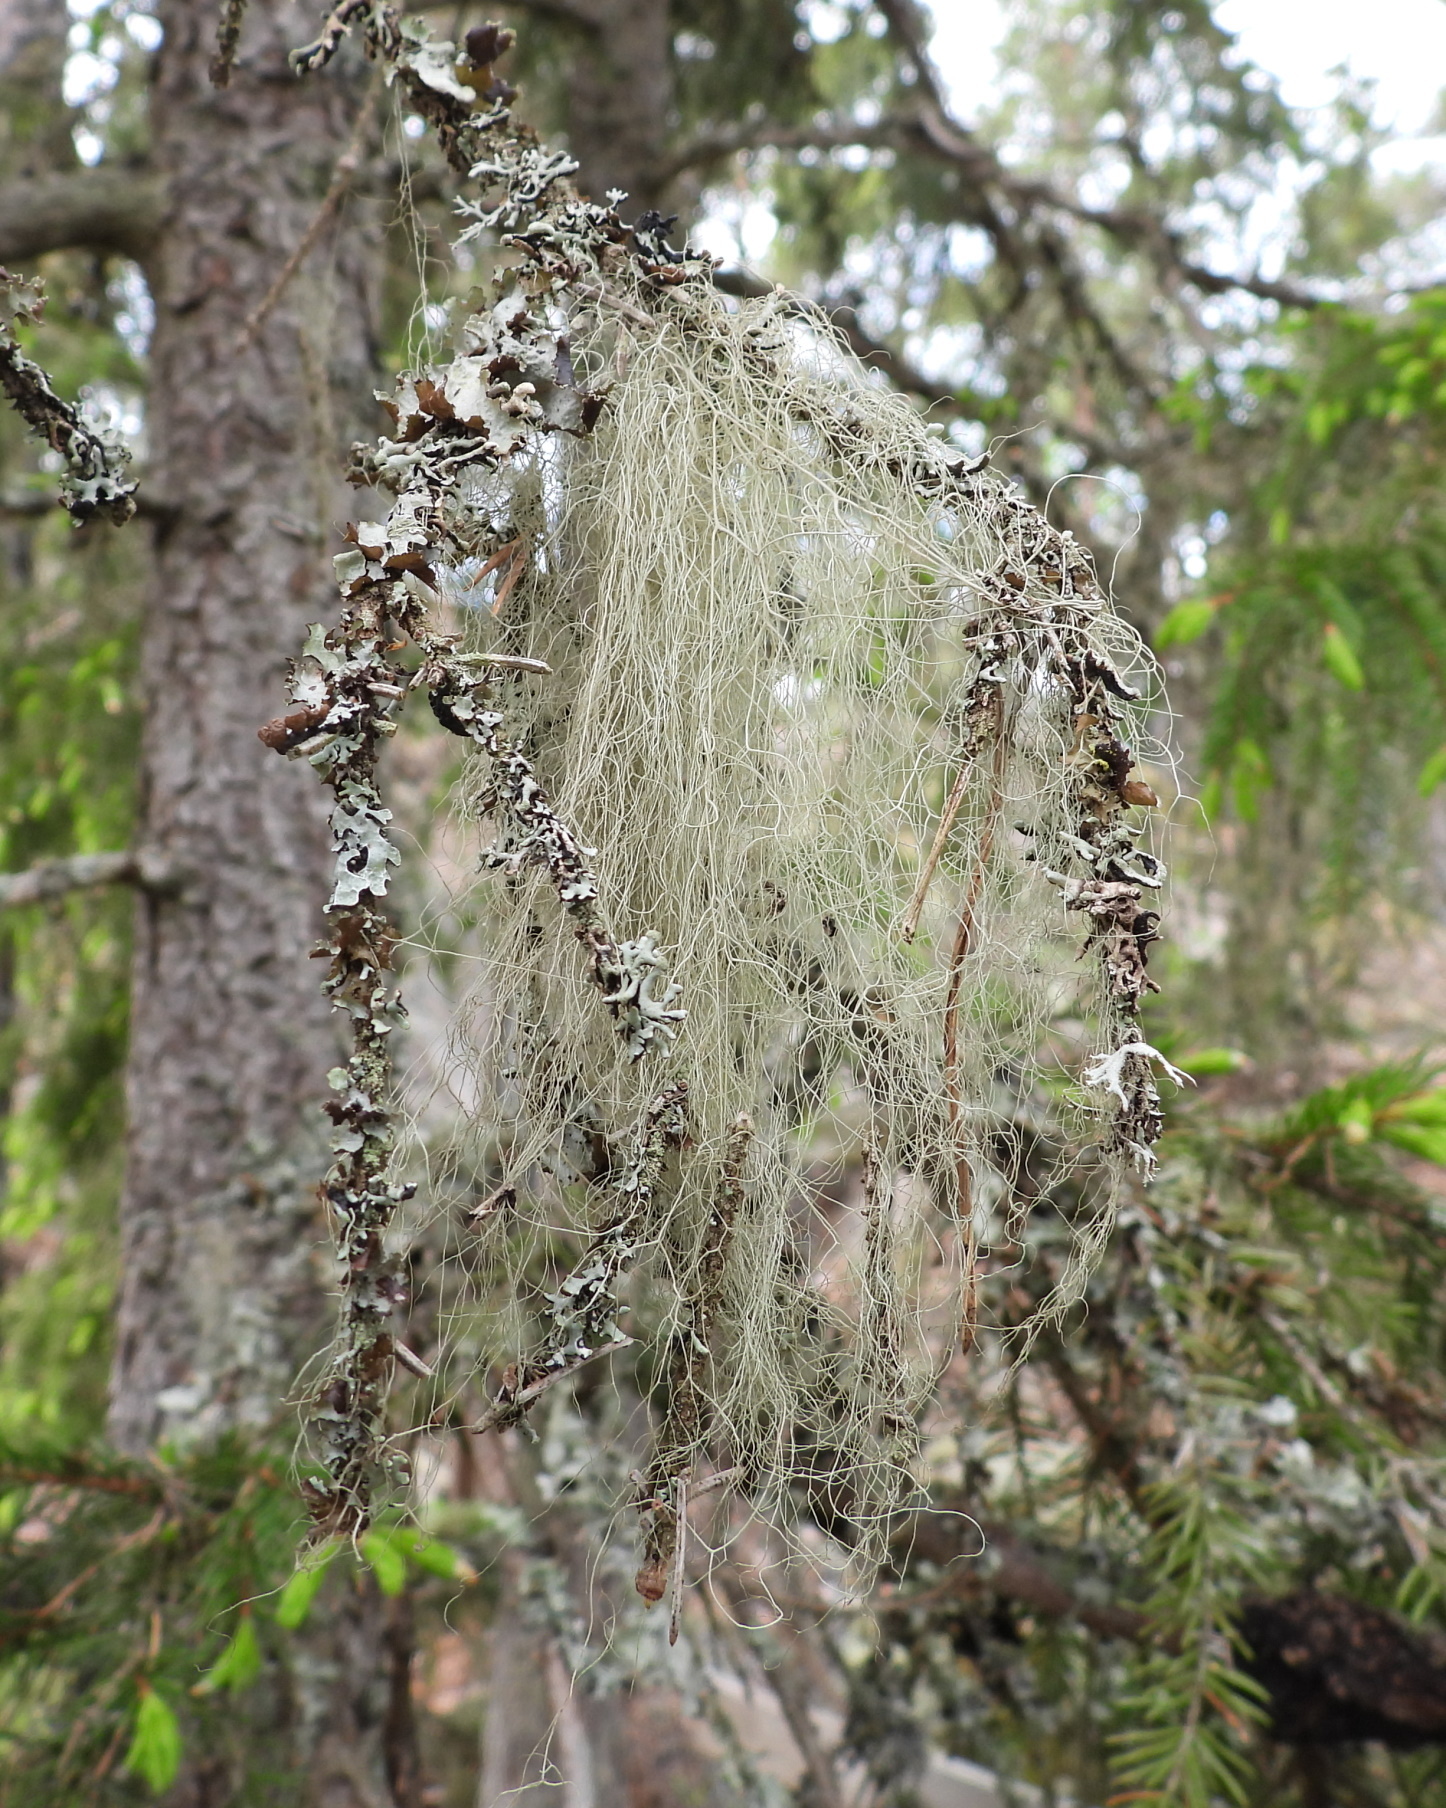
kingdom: Fungi
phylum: Ascomycota
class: Lecanoromycetes
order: Lecanorales
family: Parmeliaceae
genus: Bryoria
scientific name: Bryoria fuscescens
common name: Pale-footed horsehair lichen
